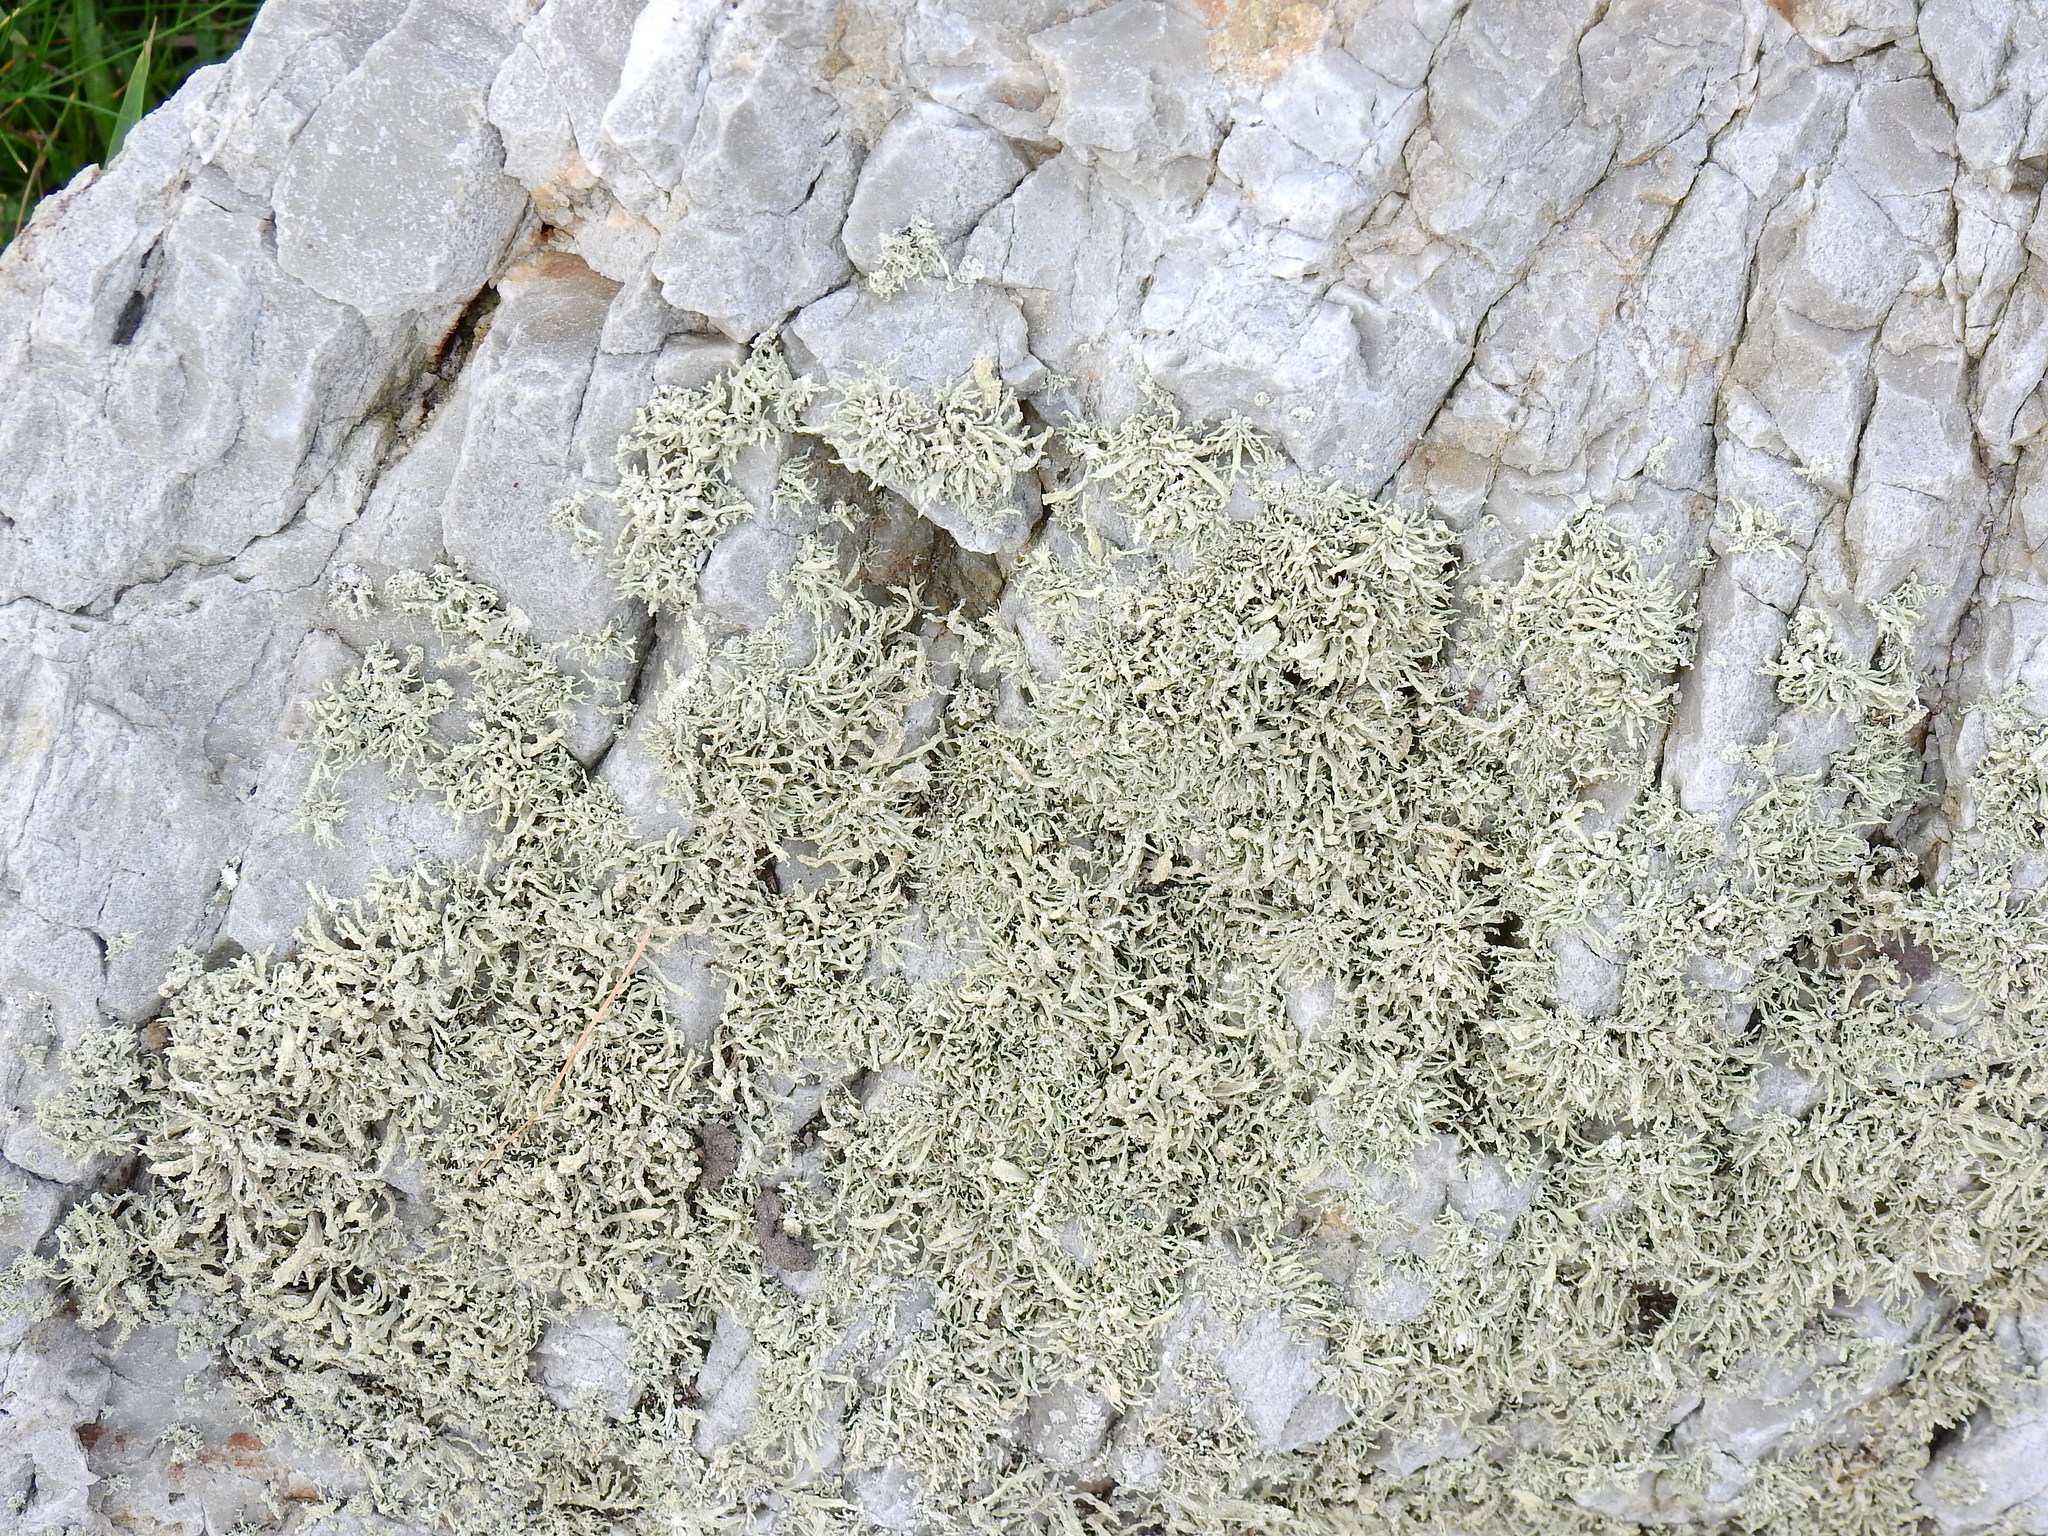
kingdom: Fungi
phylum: Ascomycota
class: Lecanoromycetes
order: Lecanorales
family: Ramalinaceae
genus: Ramalina
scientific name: Ramalina siliquosa
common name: Sea ivory
